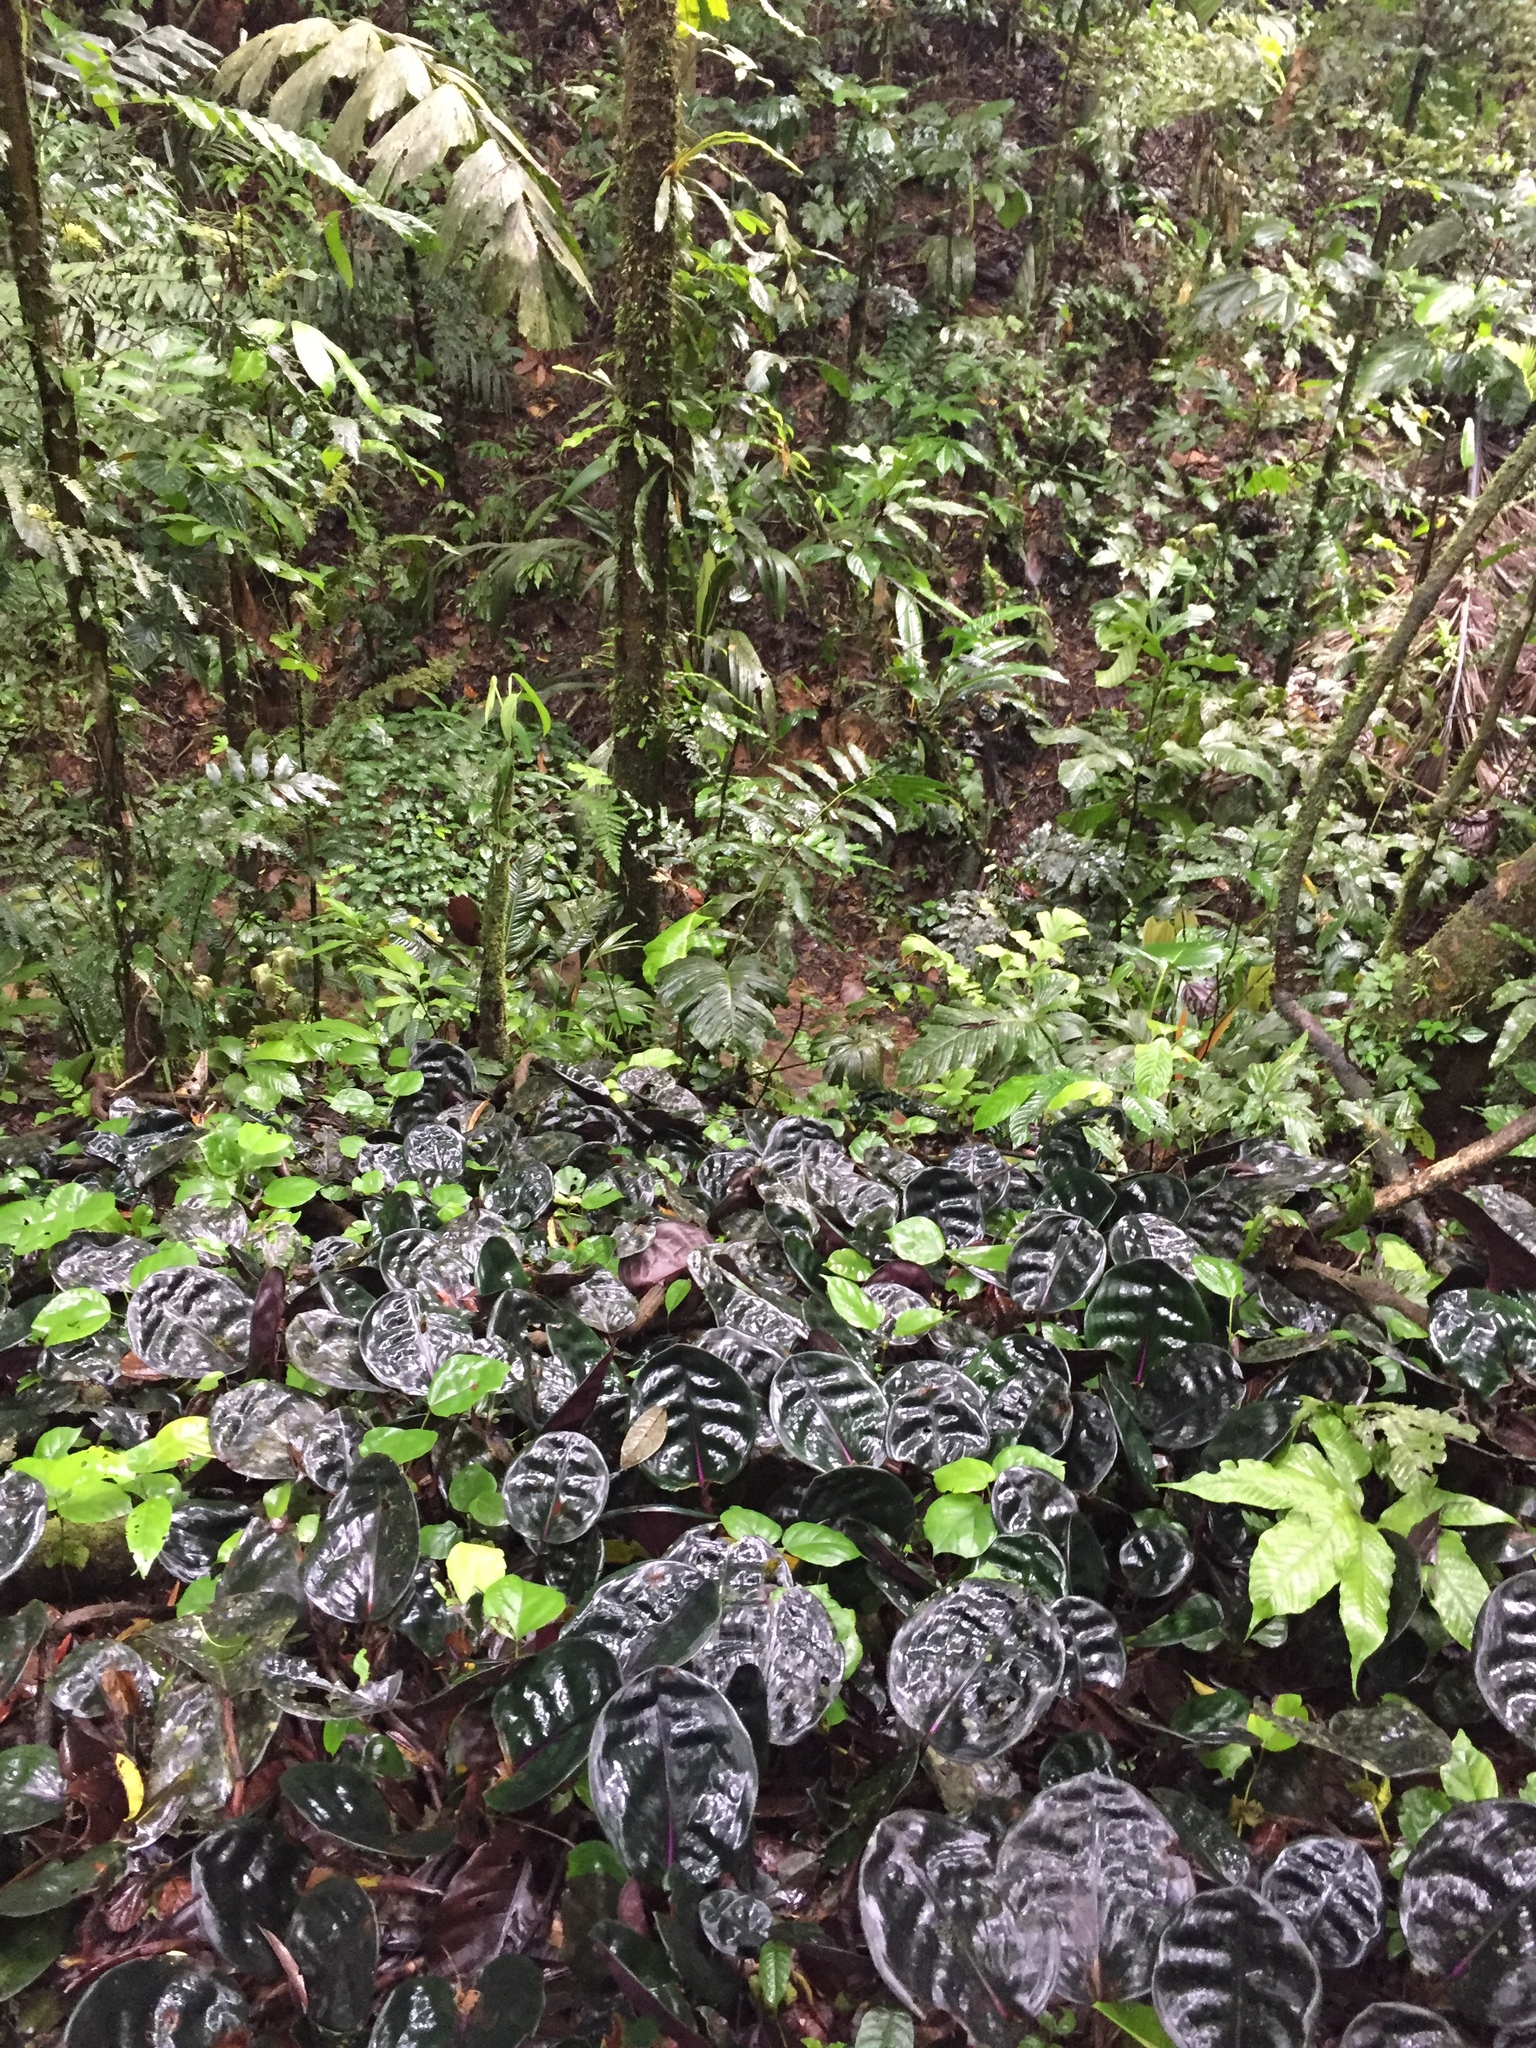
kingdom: Plantae
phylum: Tracheophyta
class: Liliopsida
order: Commelinales
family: Commelinaceae
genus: Geogenanthus
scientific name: Geogenanthus ciliatus
